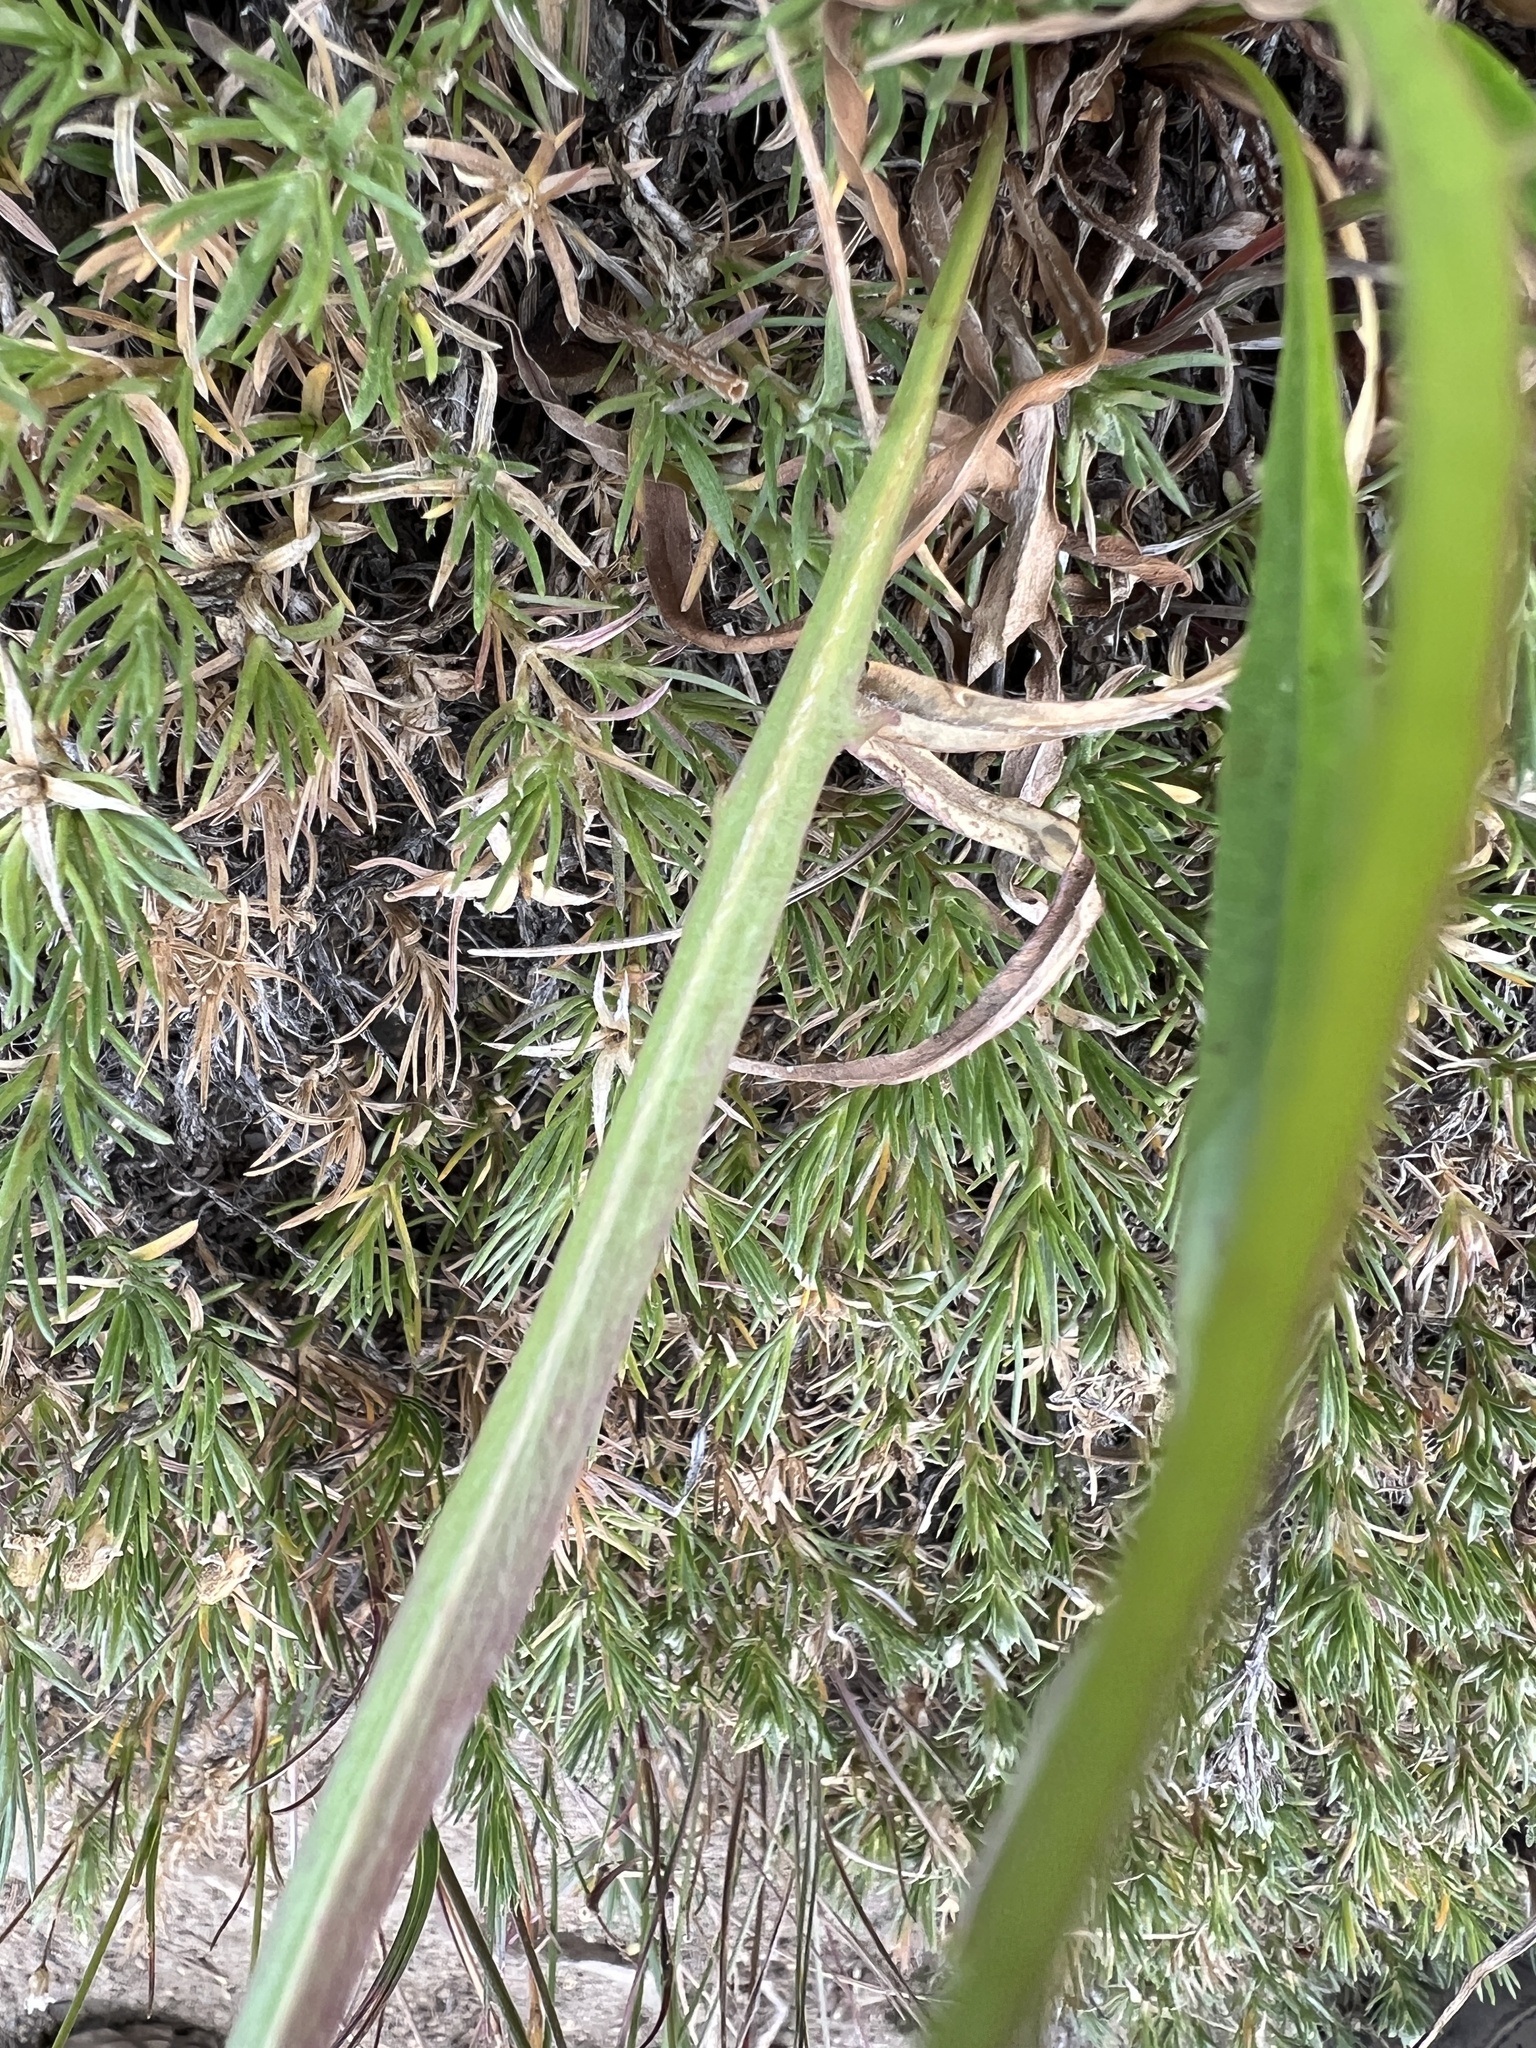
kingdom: Plantae
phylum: Tracheophyta
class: Magnoliopsida
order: Asterales
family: Asteraceae
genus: Agoseris
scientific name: Agoseris aurantiaca
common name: Mountain agoseris
